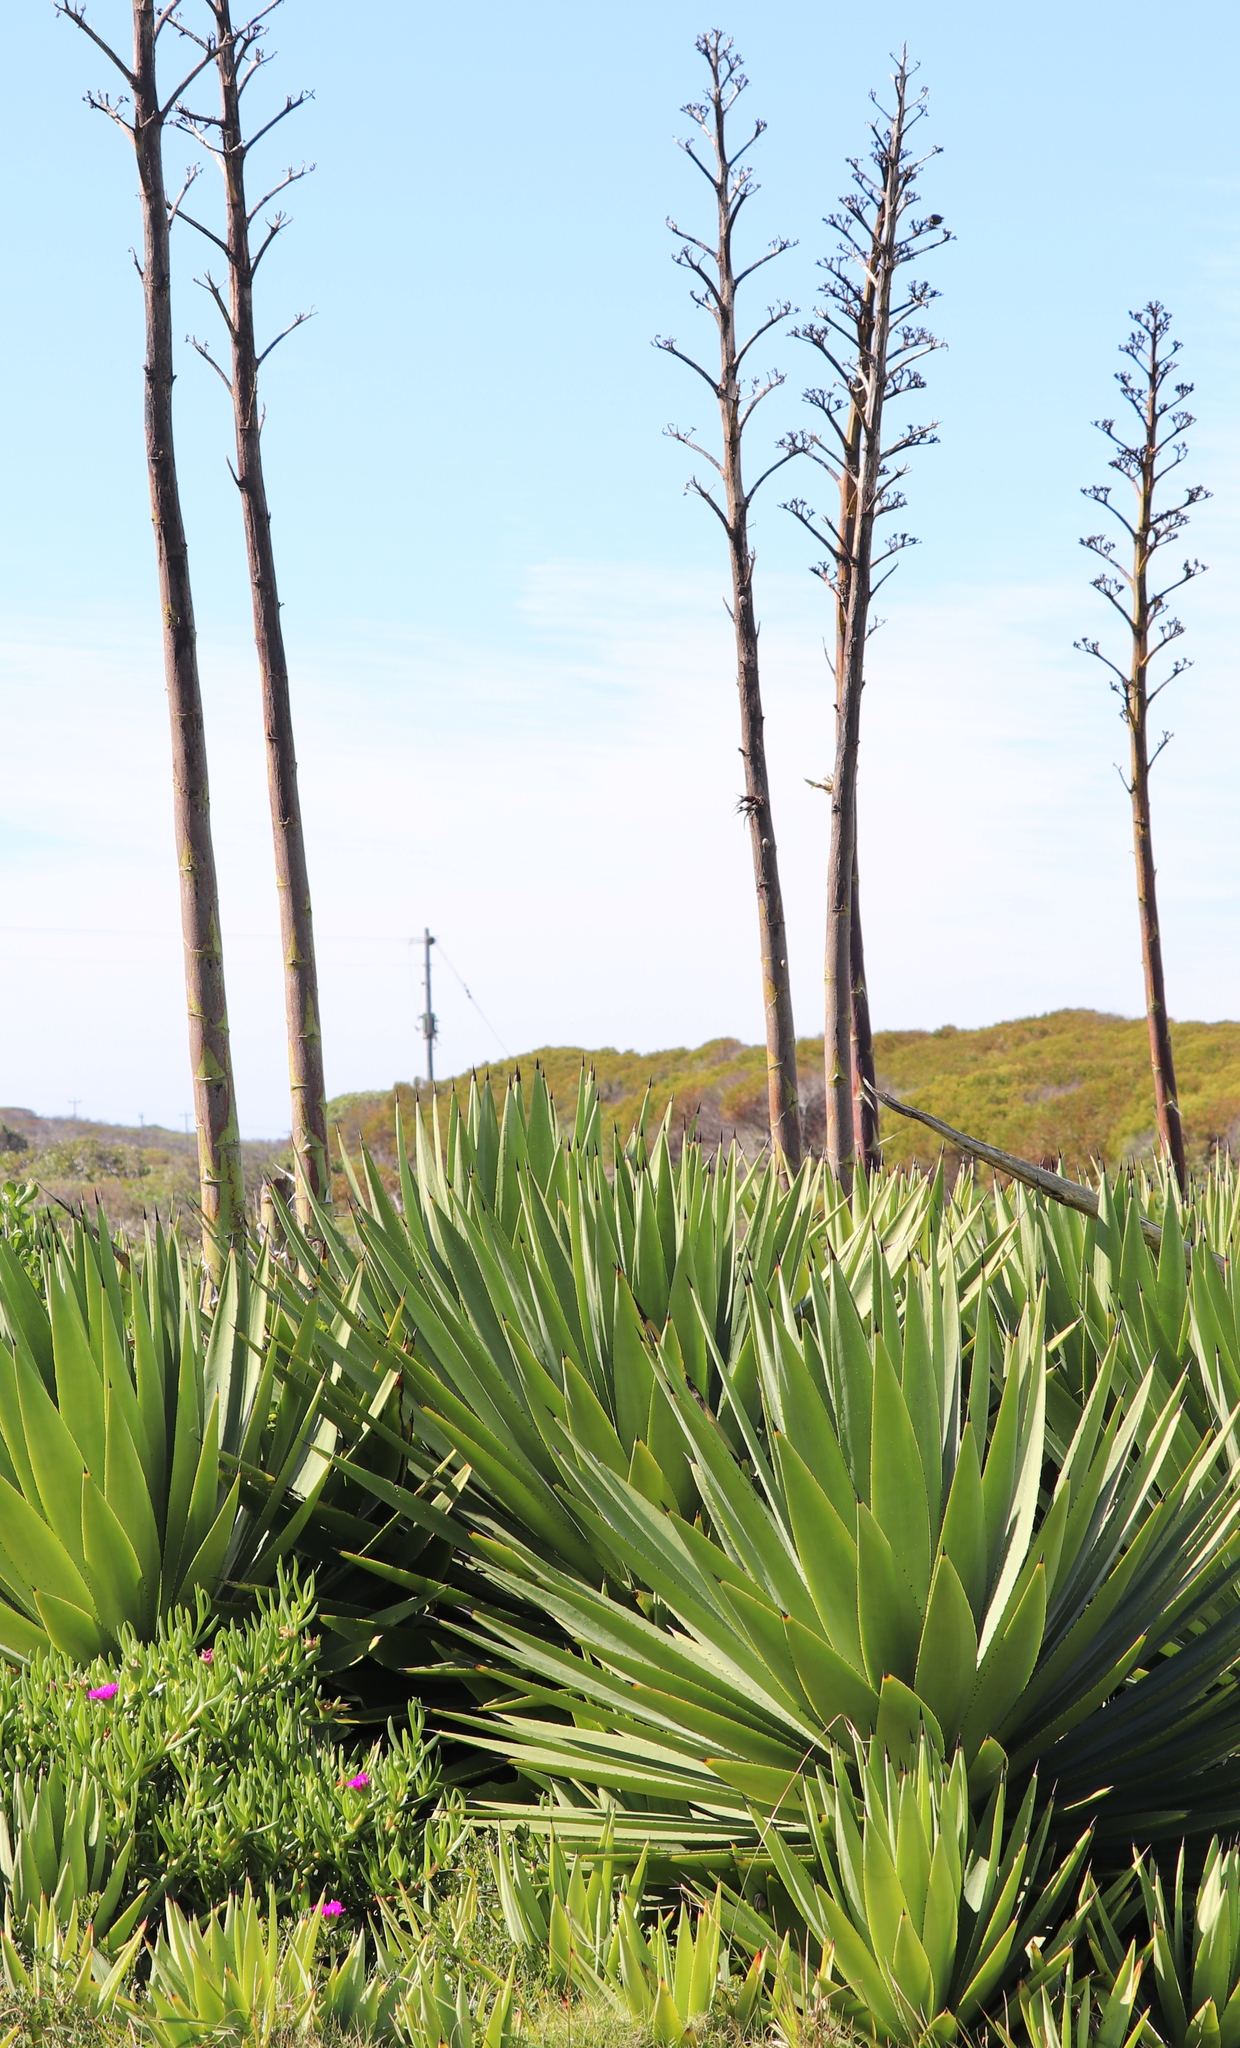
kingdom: Plantae
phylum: Tracheophyta
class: Liliopsida
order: Asparagales
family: Asparagaceae
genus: Agave
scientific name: Agave sisalana
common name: Sisal hemp
